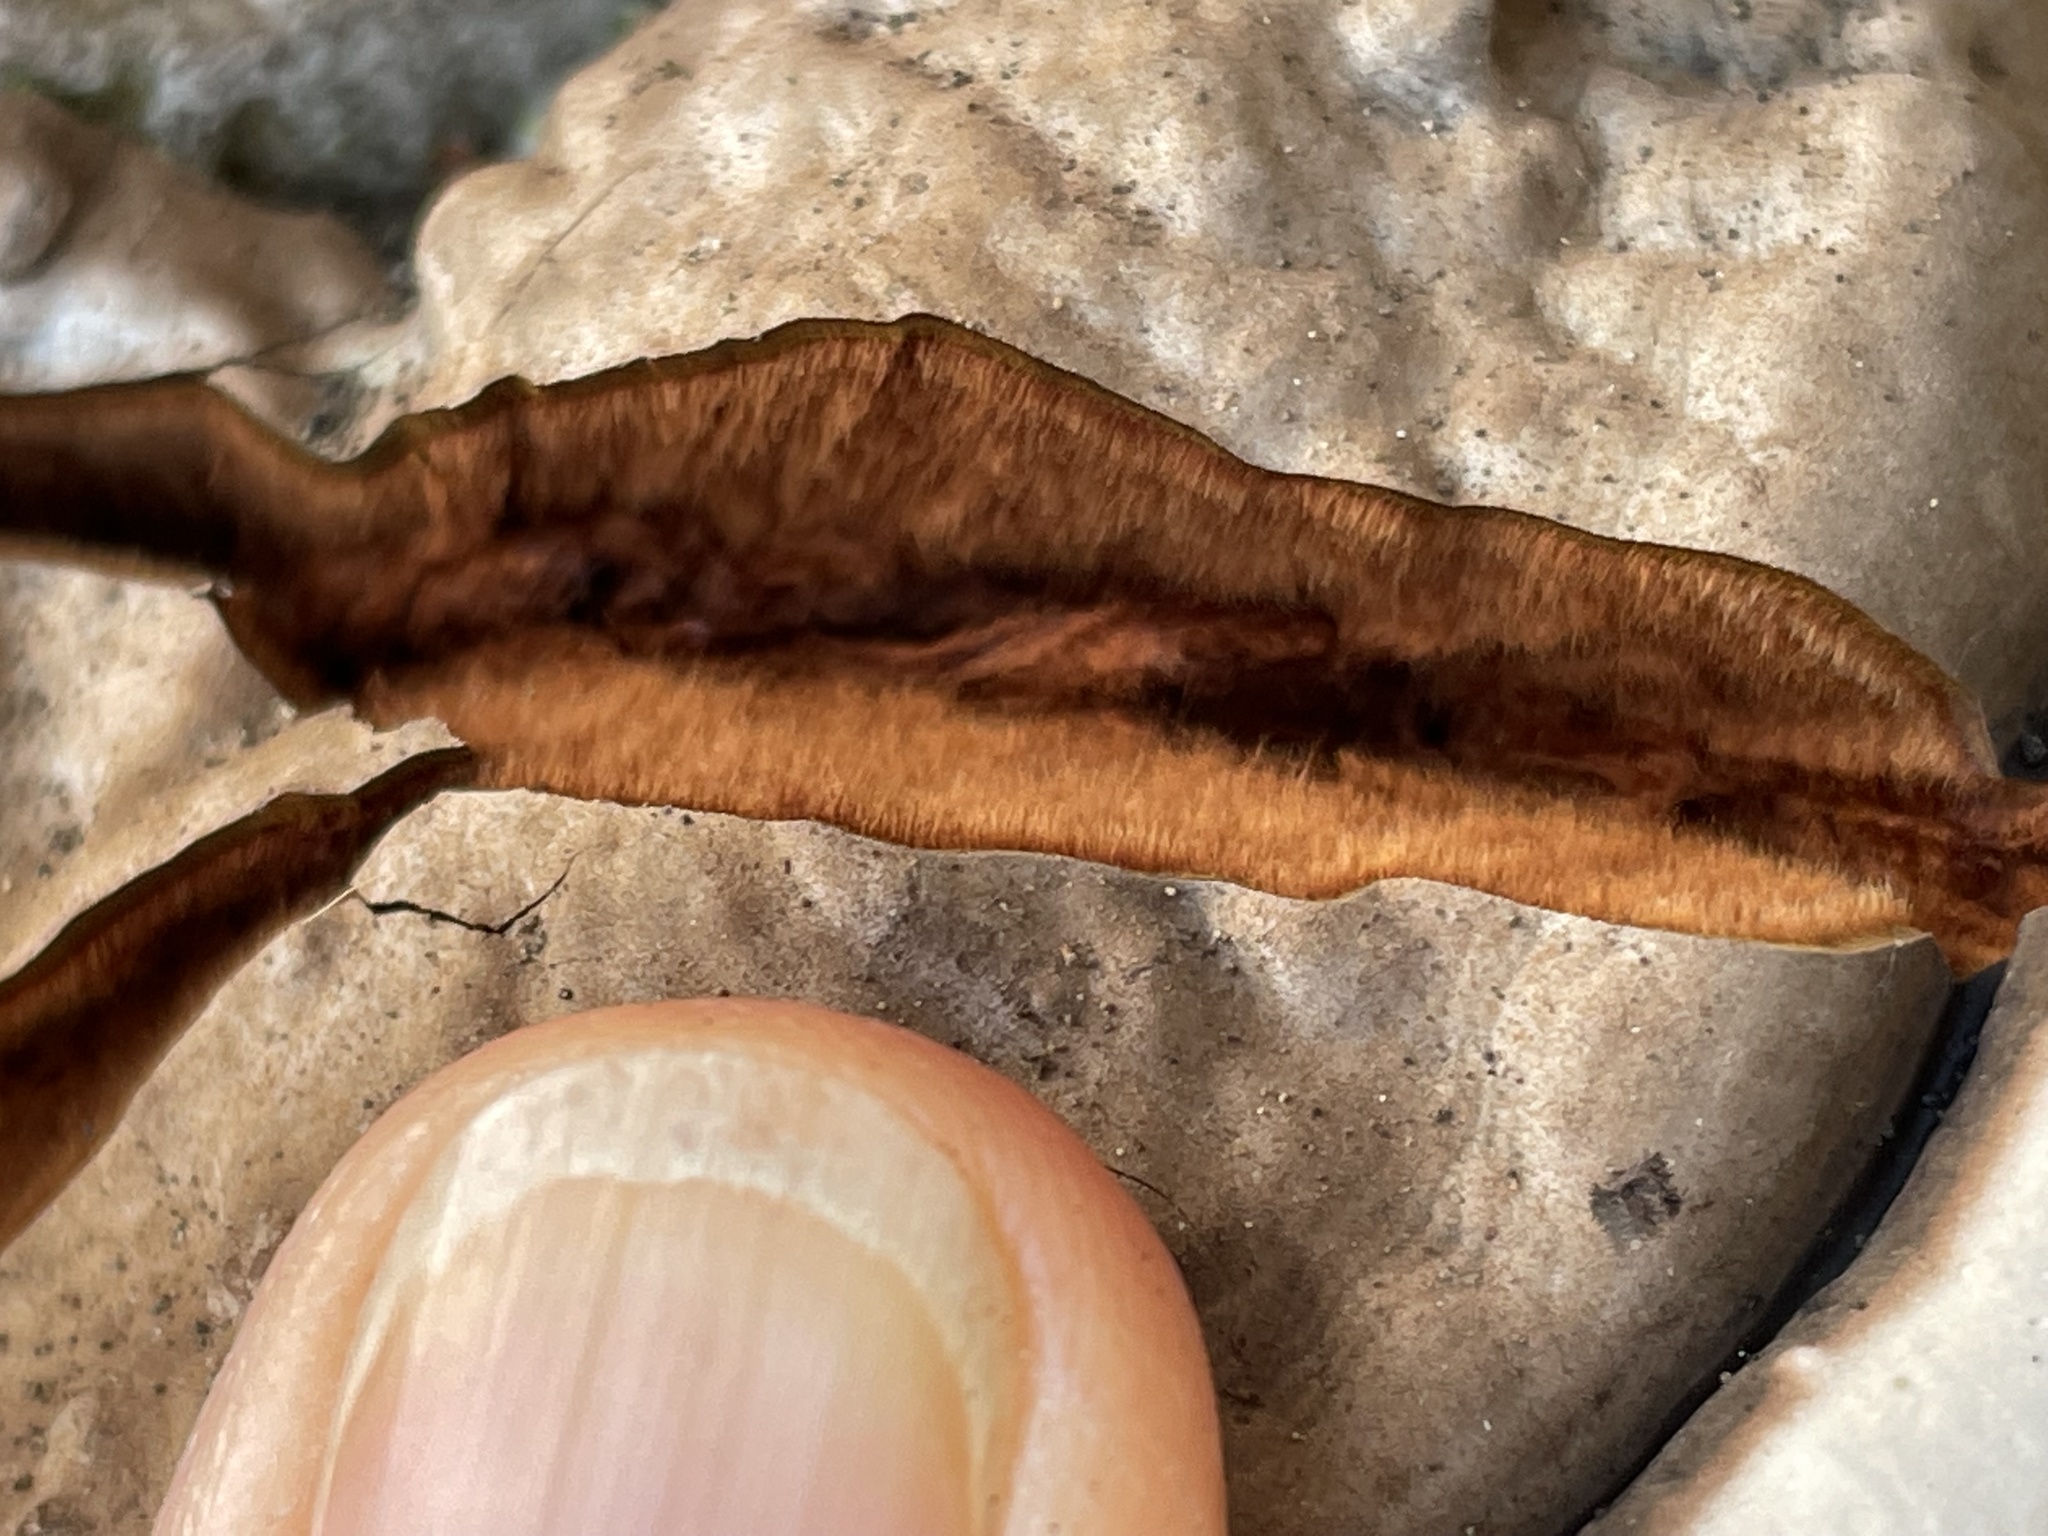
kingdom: Fungi
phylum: Basidiomycota
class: Agaricomycetes
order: Polyporales
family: Polyporaceae
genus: Ganoderma
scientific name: Ganoderma brownii
